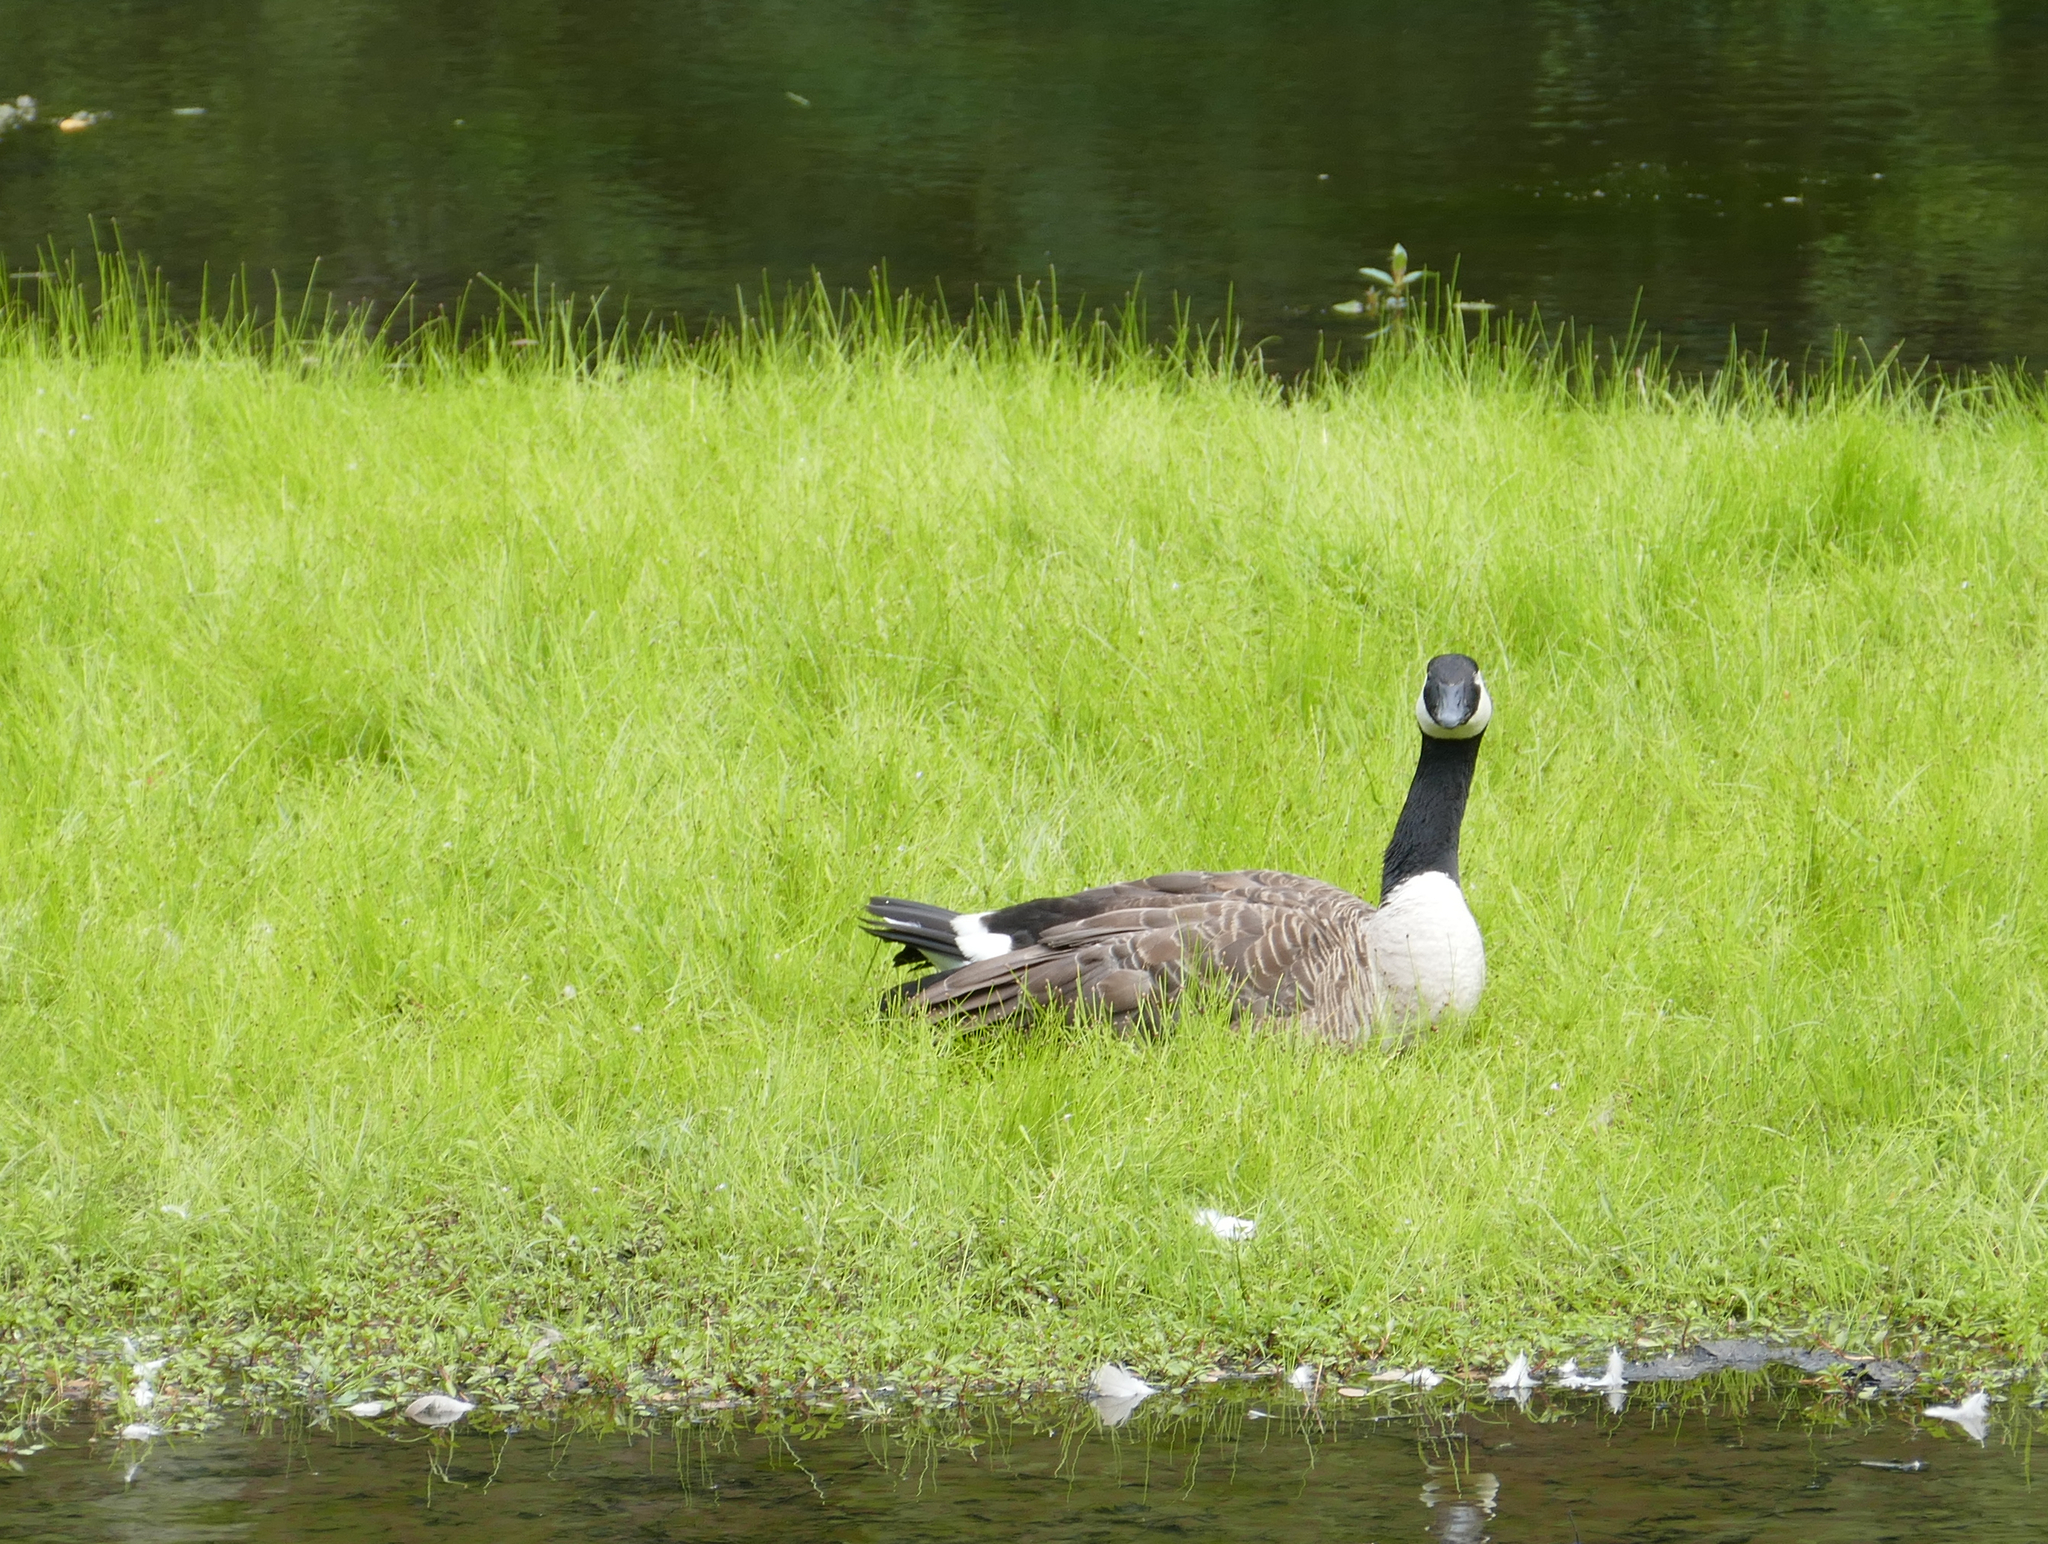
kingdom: Animalia
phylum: Chordata
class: Aves
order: Anseriformes
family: Anatidae
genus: Branta
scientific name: Branta canadensis
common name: Canada goose
